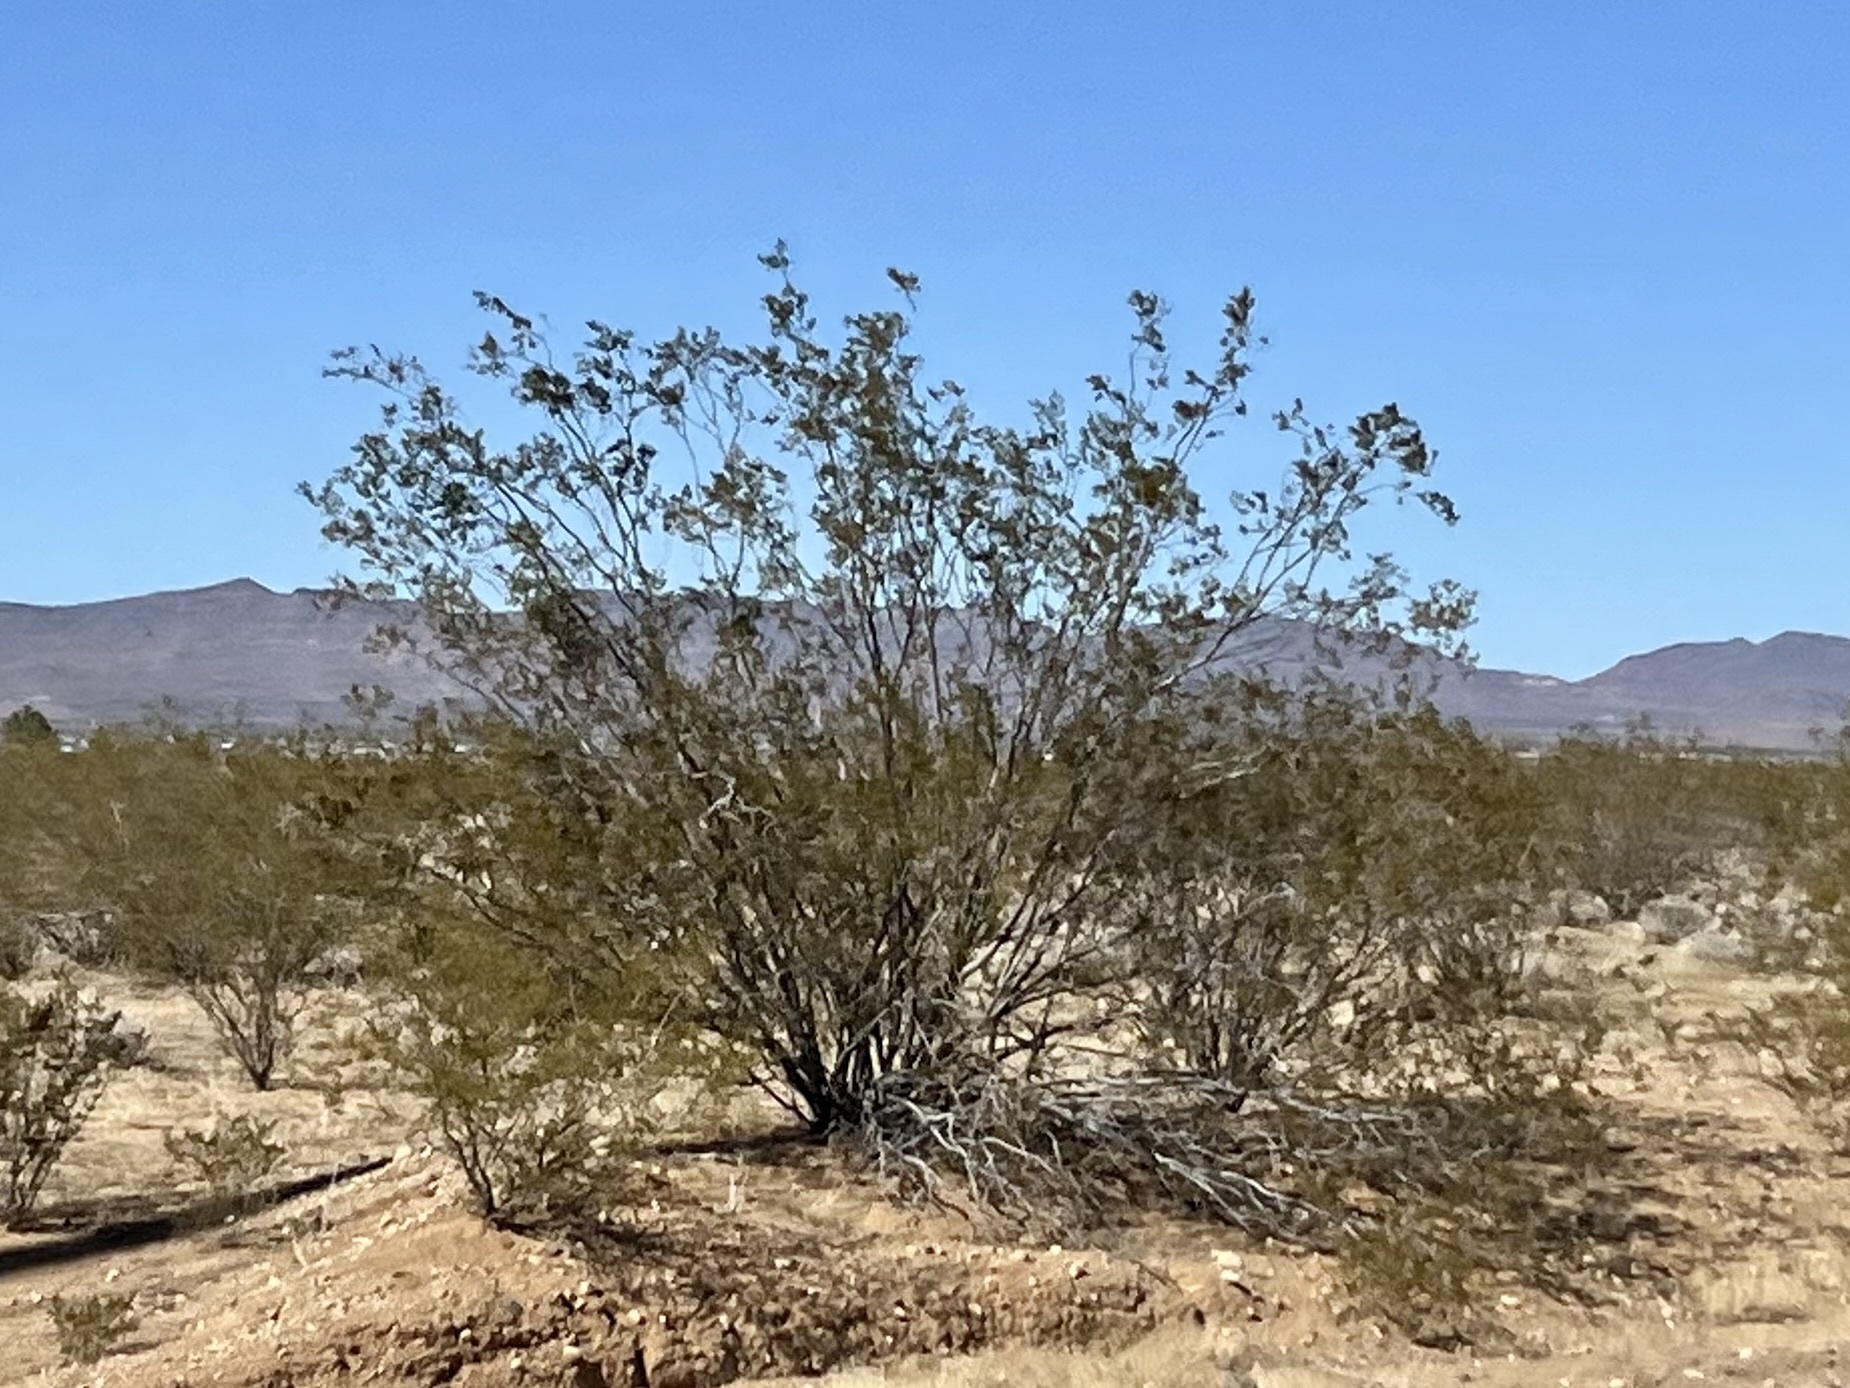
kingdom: Plantae
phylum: Tracheophyta
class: Magnoliopsida
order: Zygophyllales
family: Zygophyllaceae
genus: Larrea
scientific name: Larrea tridentata
